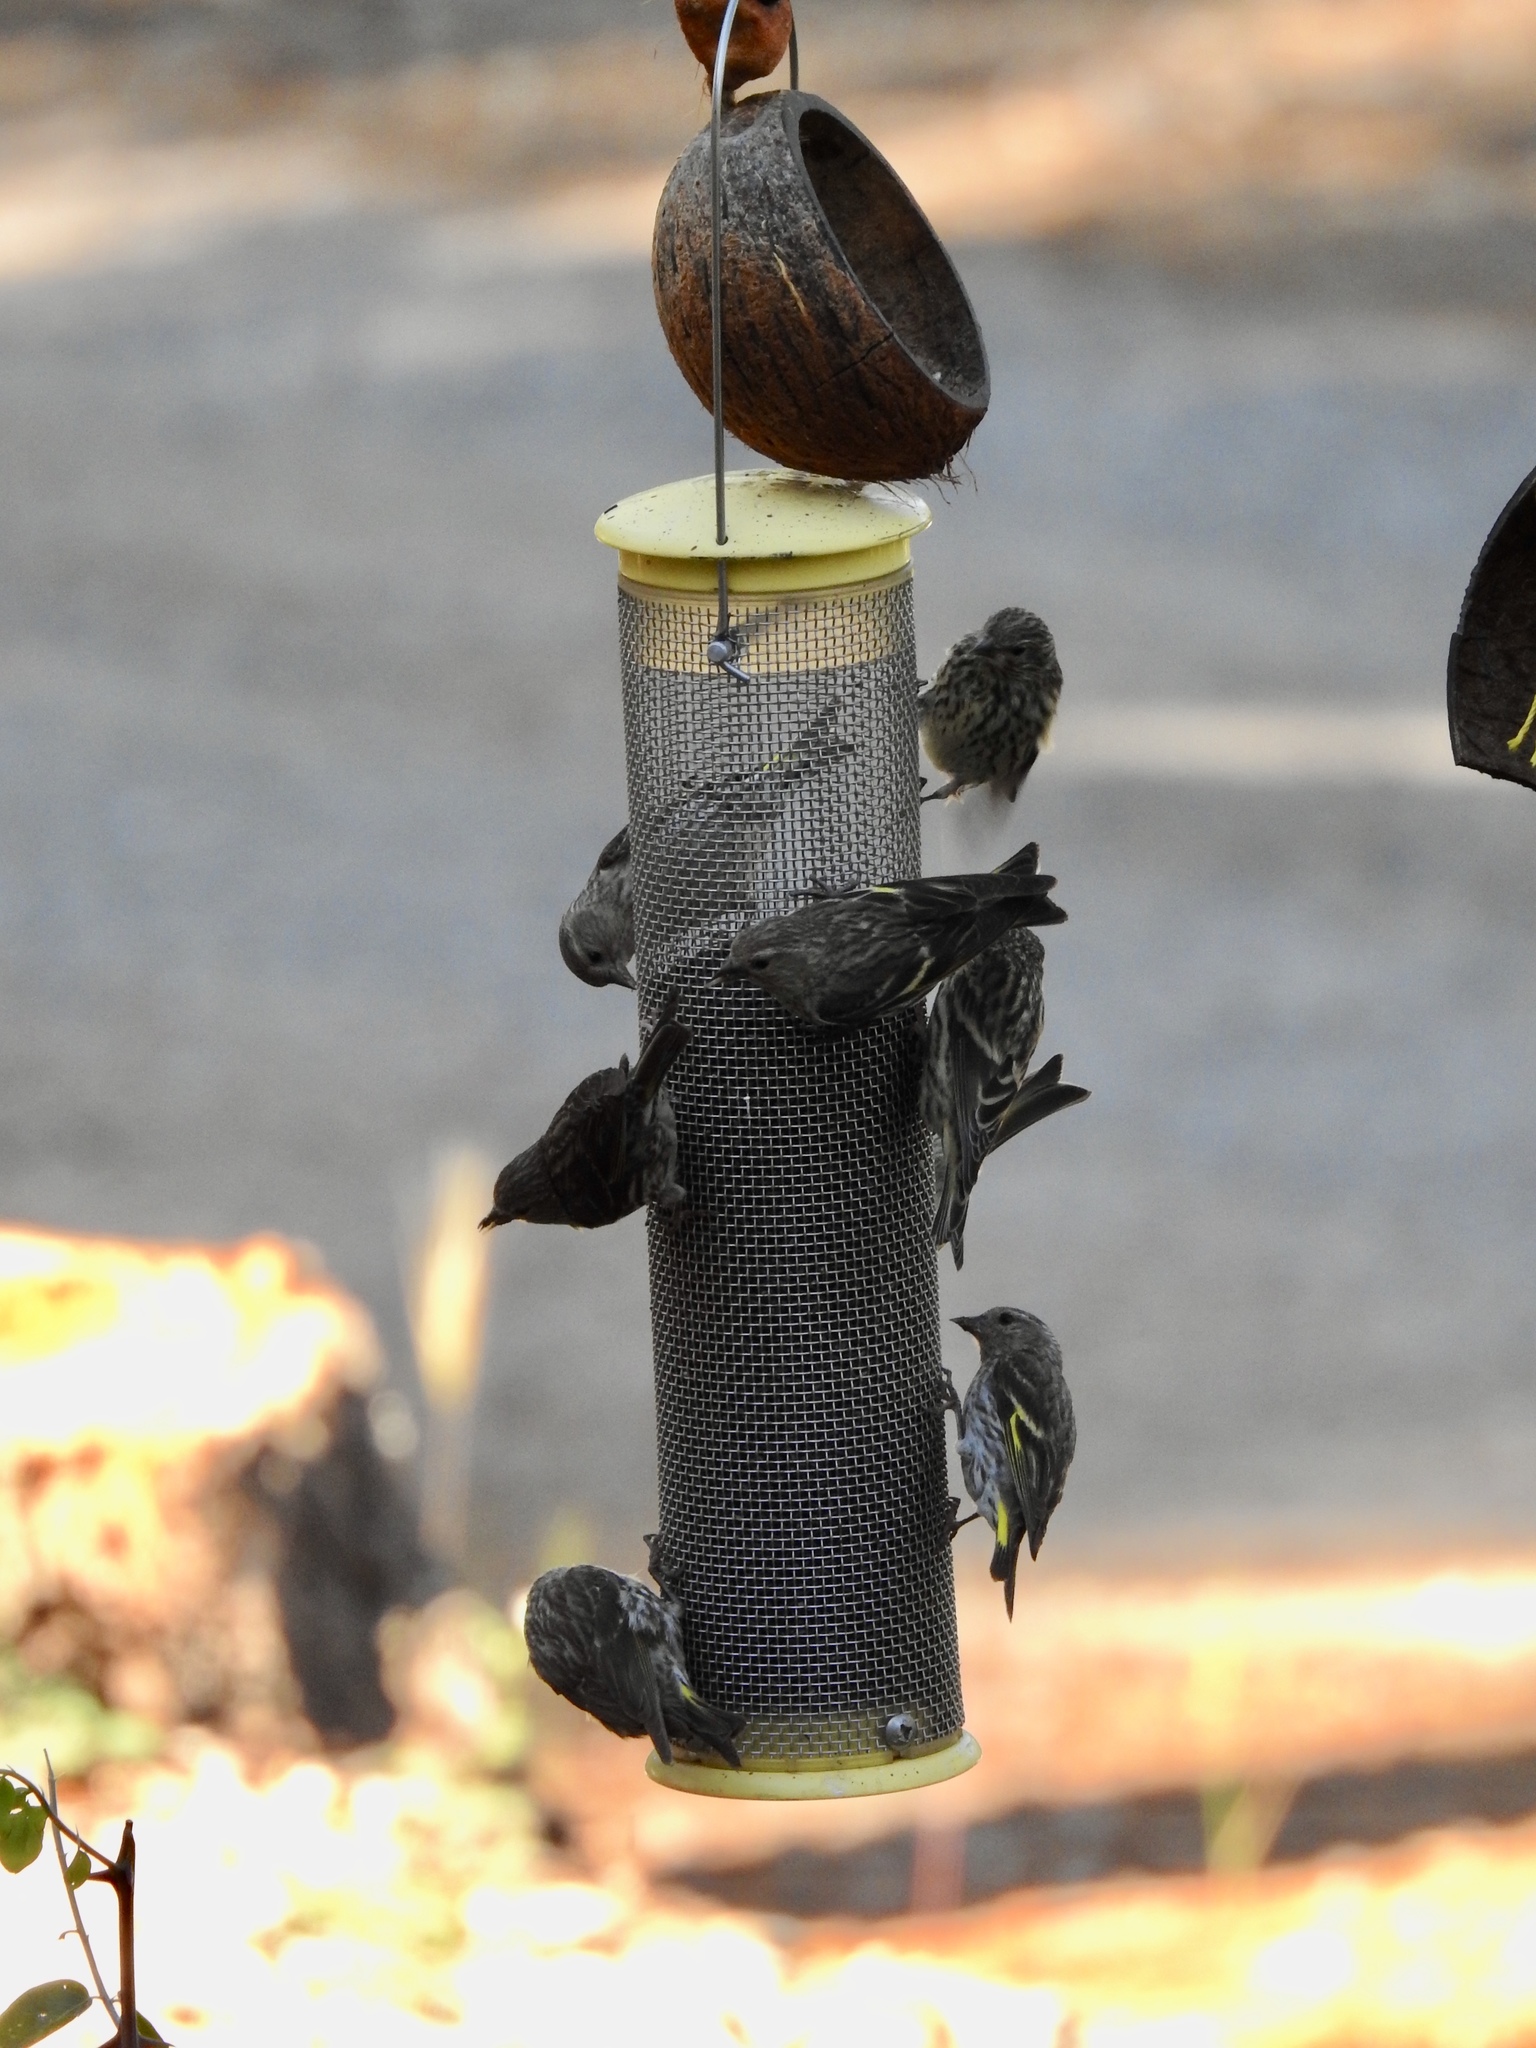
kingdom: Animalia
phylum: Chordata
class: Aves
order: Passeriformes
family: Fringillidae
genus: Spinus
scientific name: Spinus pinus
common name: Pine siskin
